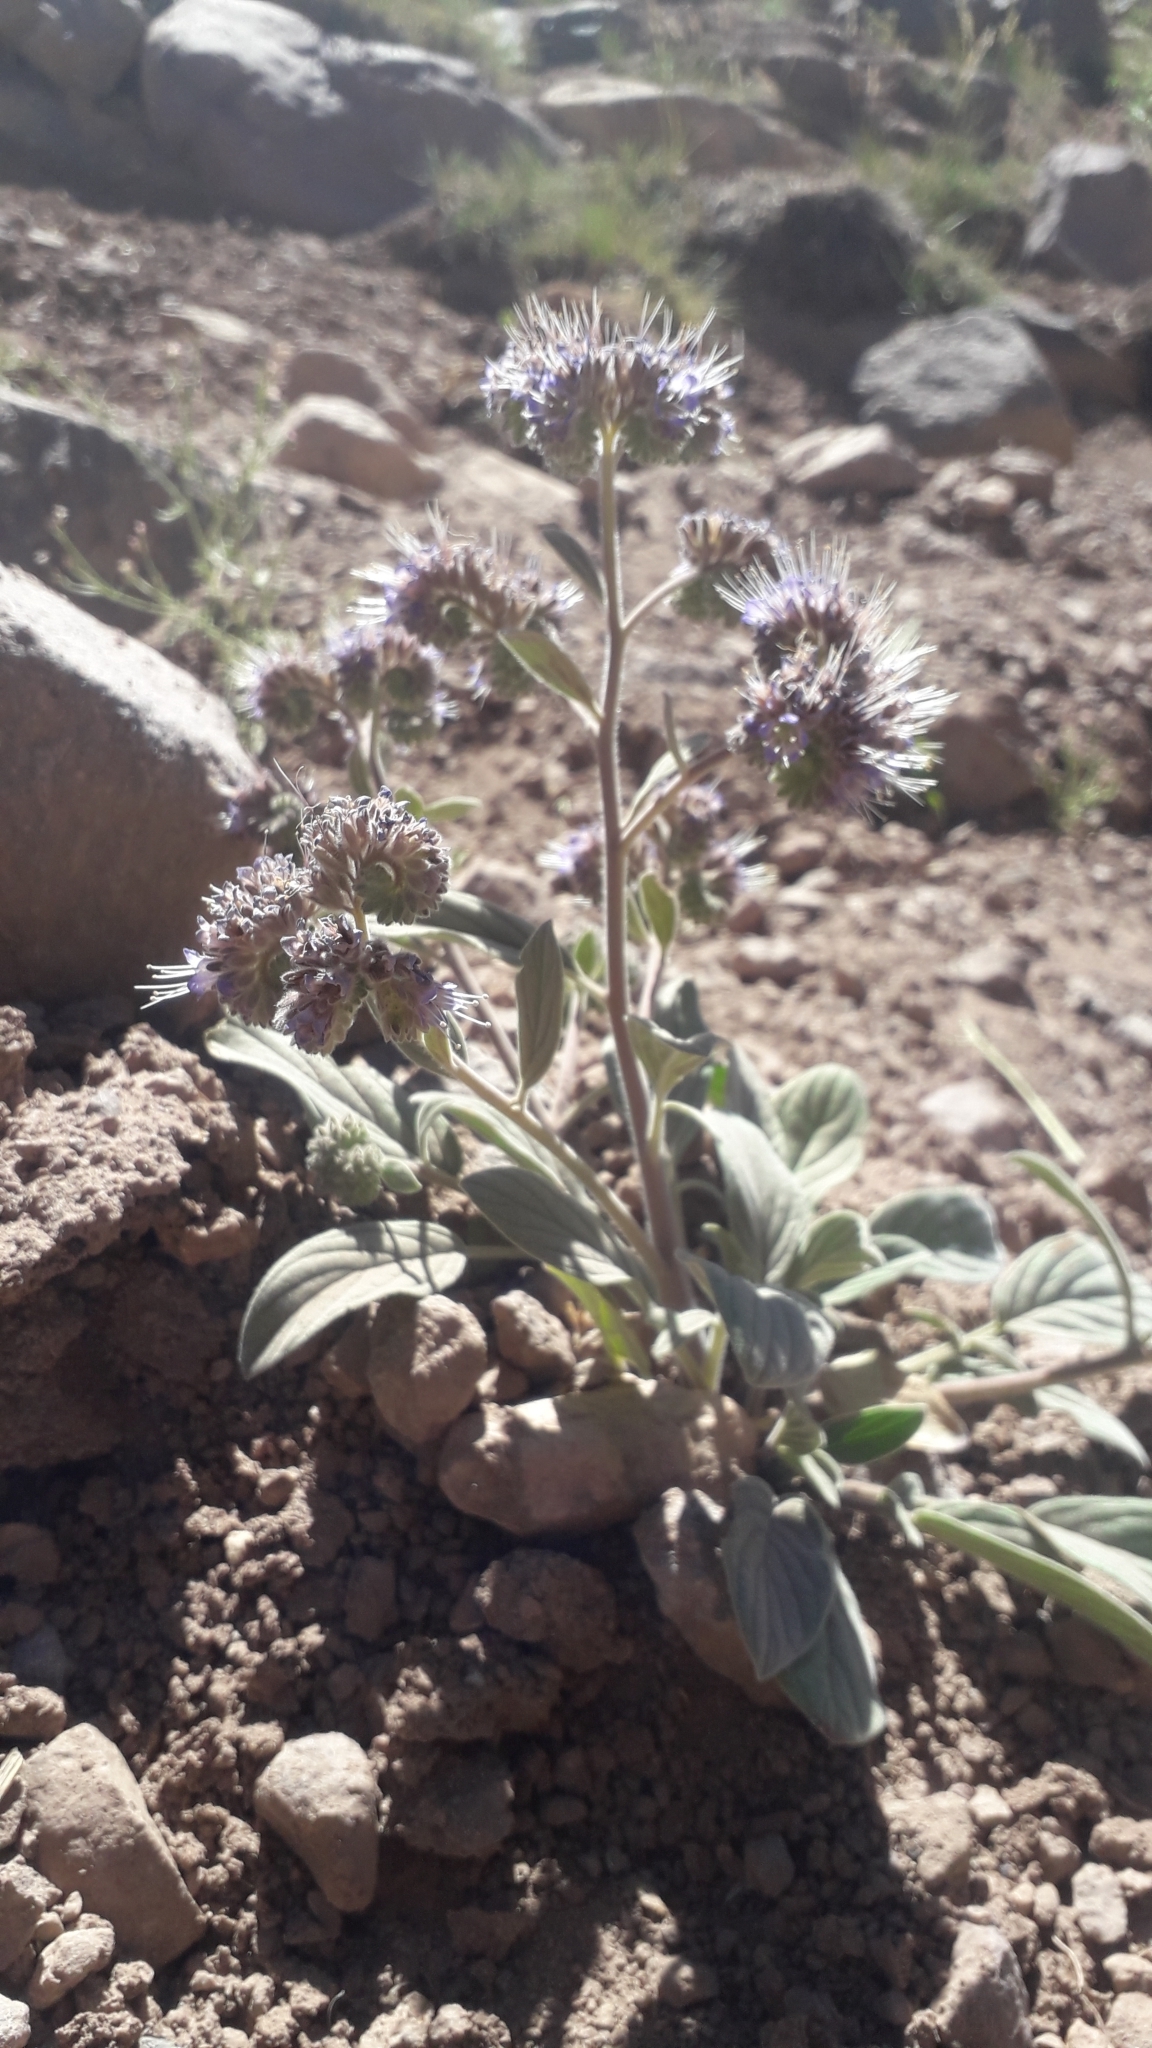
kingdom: Plantae
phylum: Tracheophyta
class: Magnoliopsida
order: Boraginales
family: Hydrophyllaceae
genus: Phacelia
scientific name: Phacelia secunda
